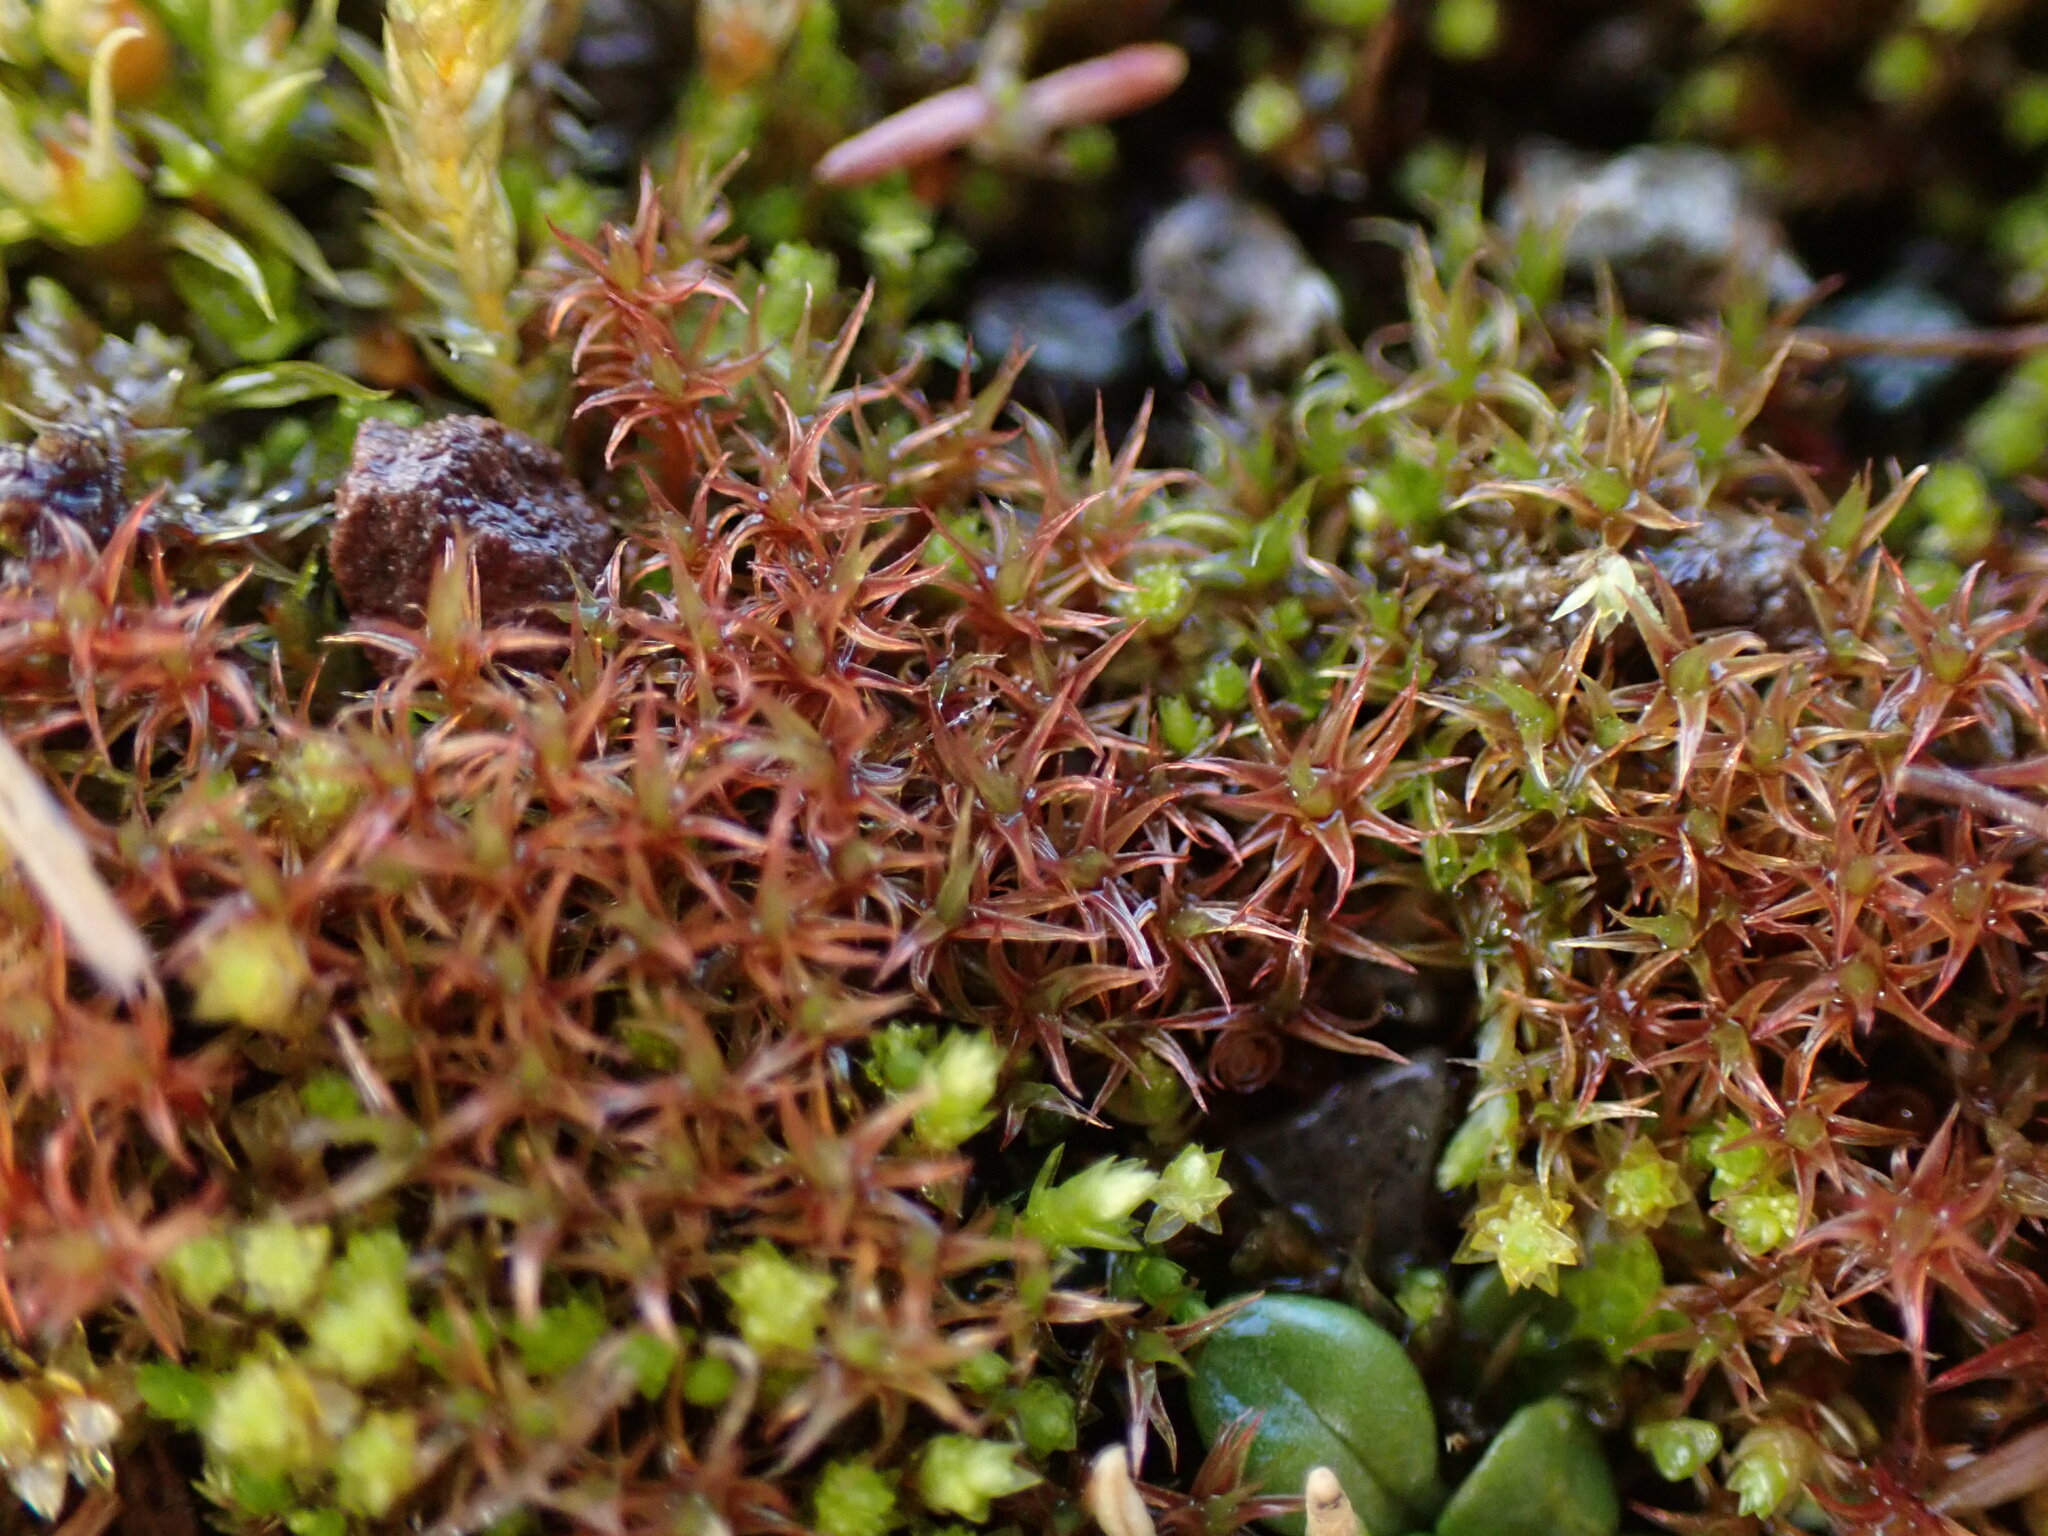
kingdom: Plantae
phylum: Bryophyta
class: Bryopsida
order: Dicranales
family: Ditrichaceae
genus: Ceratodon
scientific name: Ceratodon purpureus
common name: Redshank
